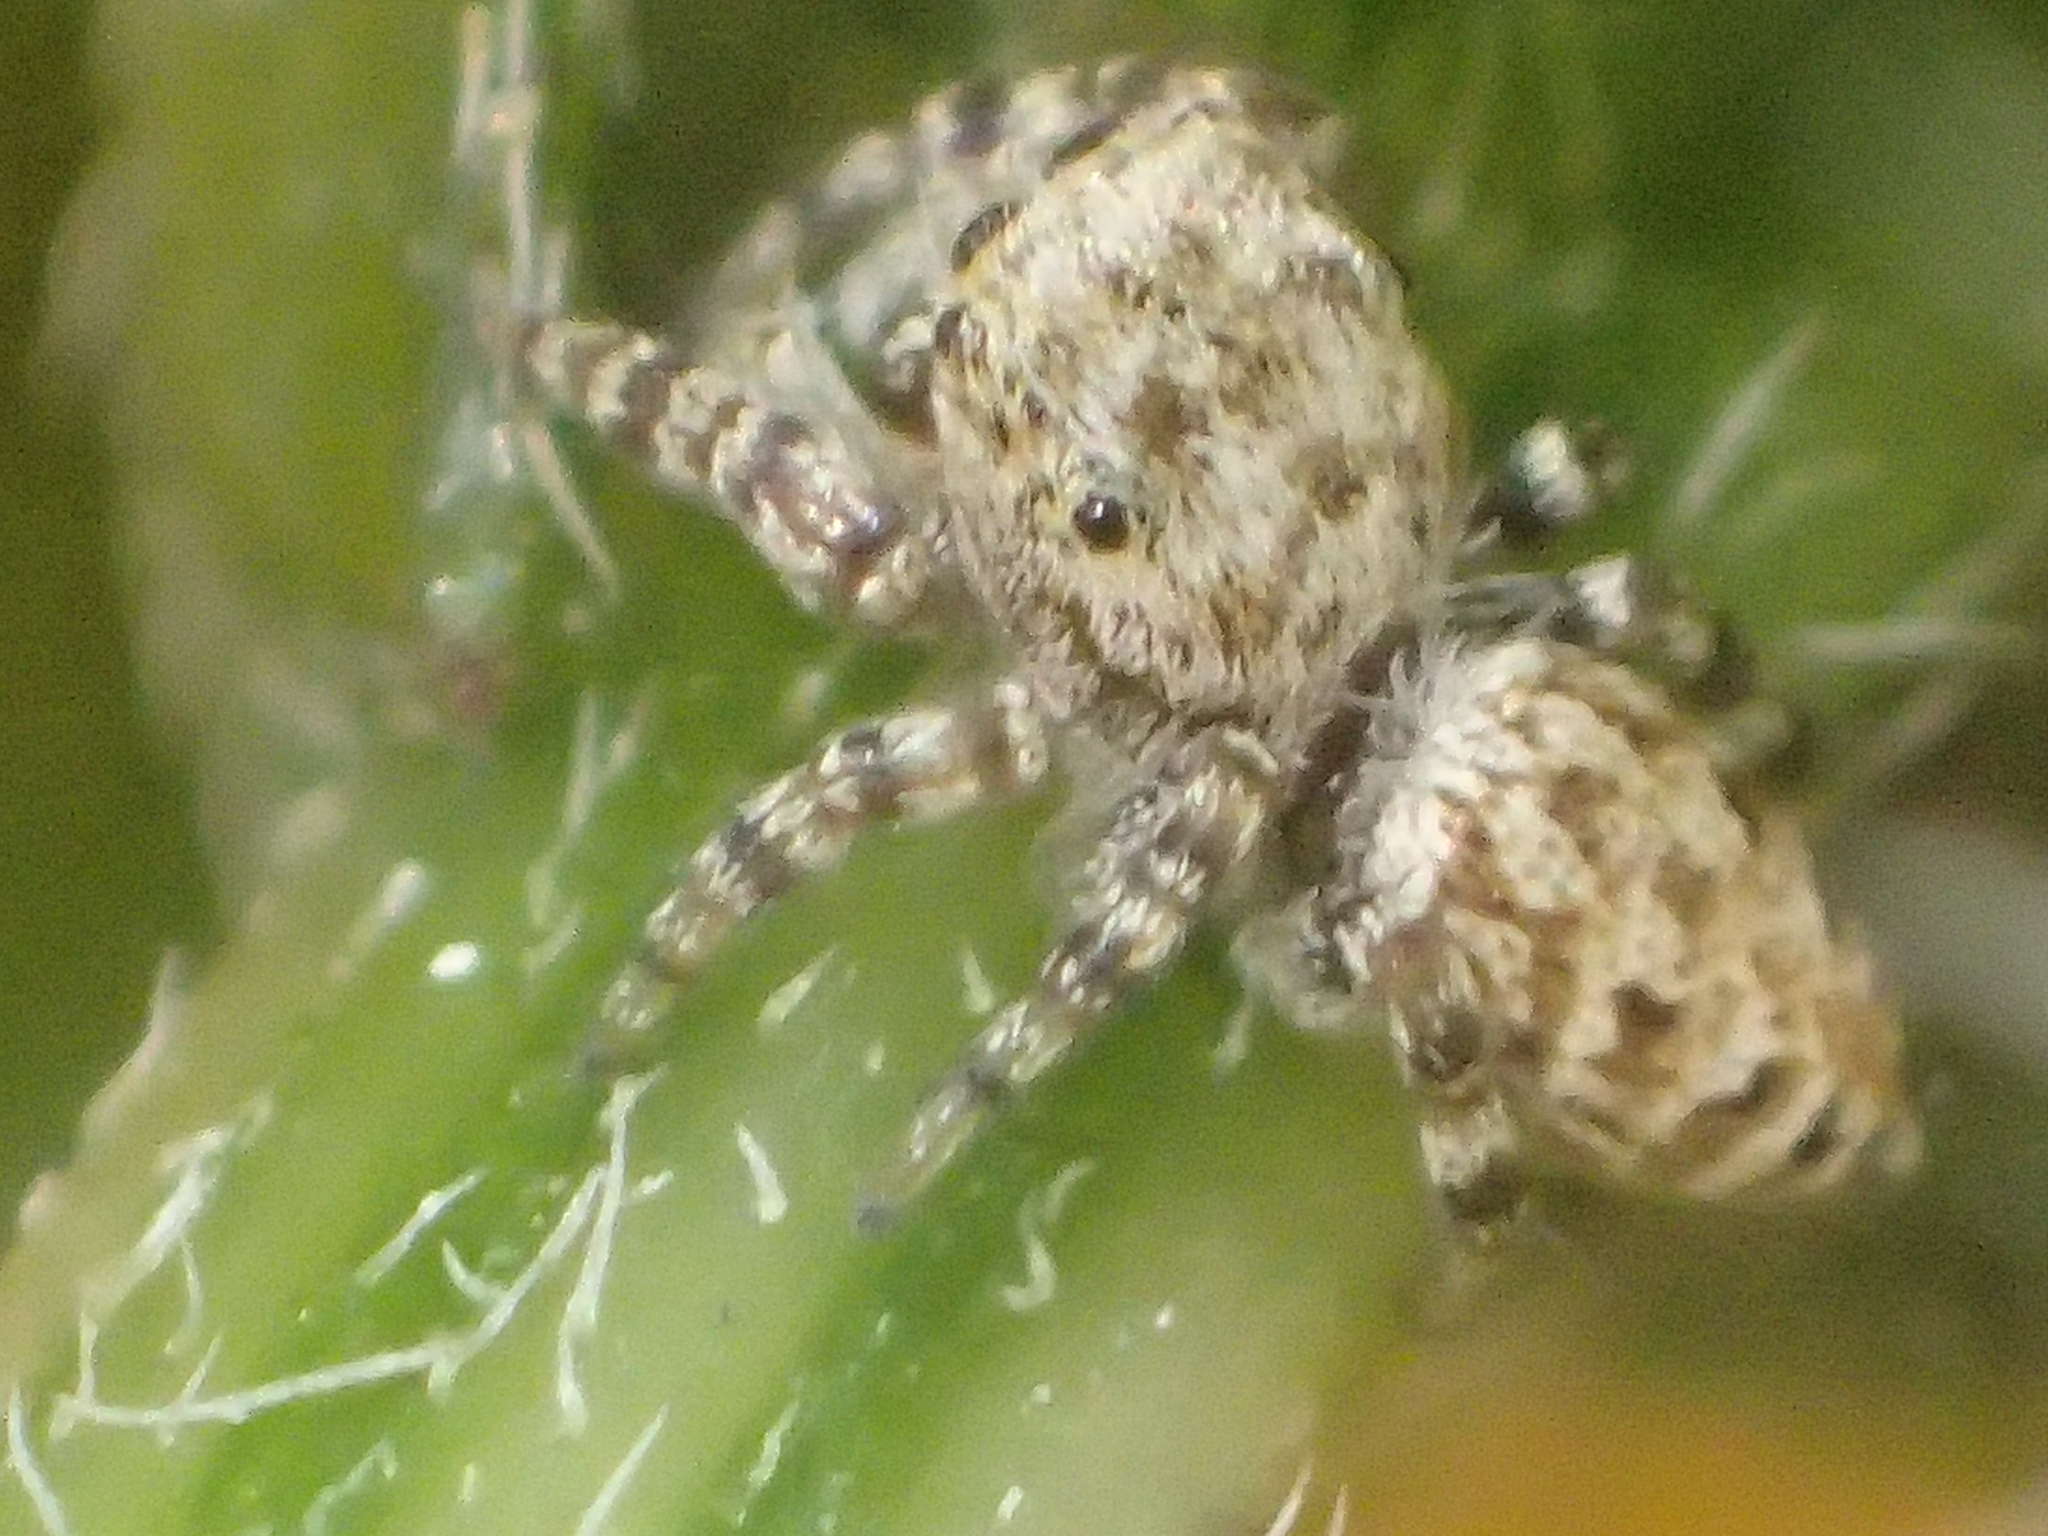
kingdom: Animalia
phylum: Arthropoda
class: Arachnida
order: Araneae
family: Salticidae
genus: Pelegrina
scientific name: Pelegrina galathea
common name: Jumping spiders
